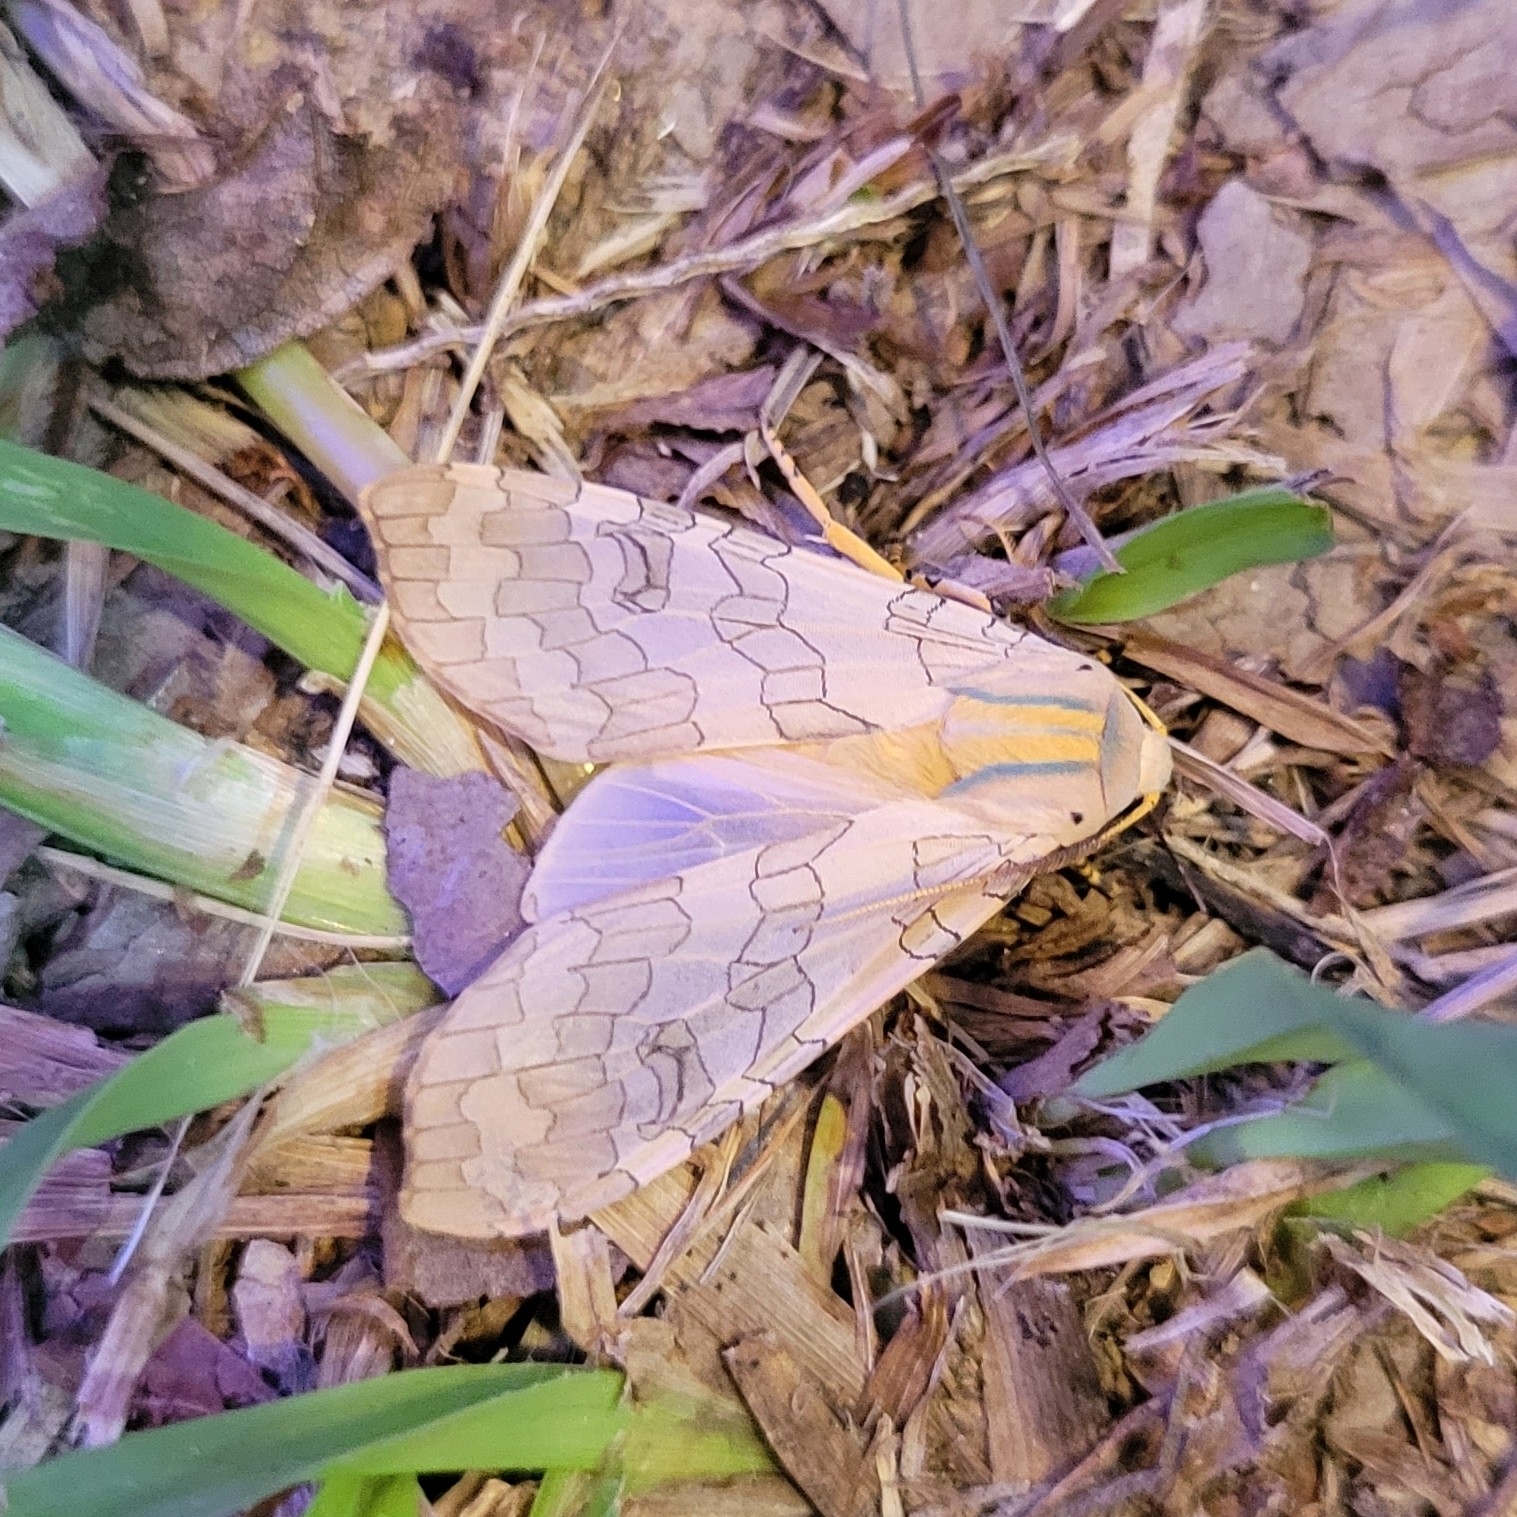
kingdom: Animalia
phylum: Arthropoda
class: Insecta
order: Lepidoptera
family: Erebidae
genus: Halysidota
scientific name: Halysidota
